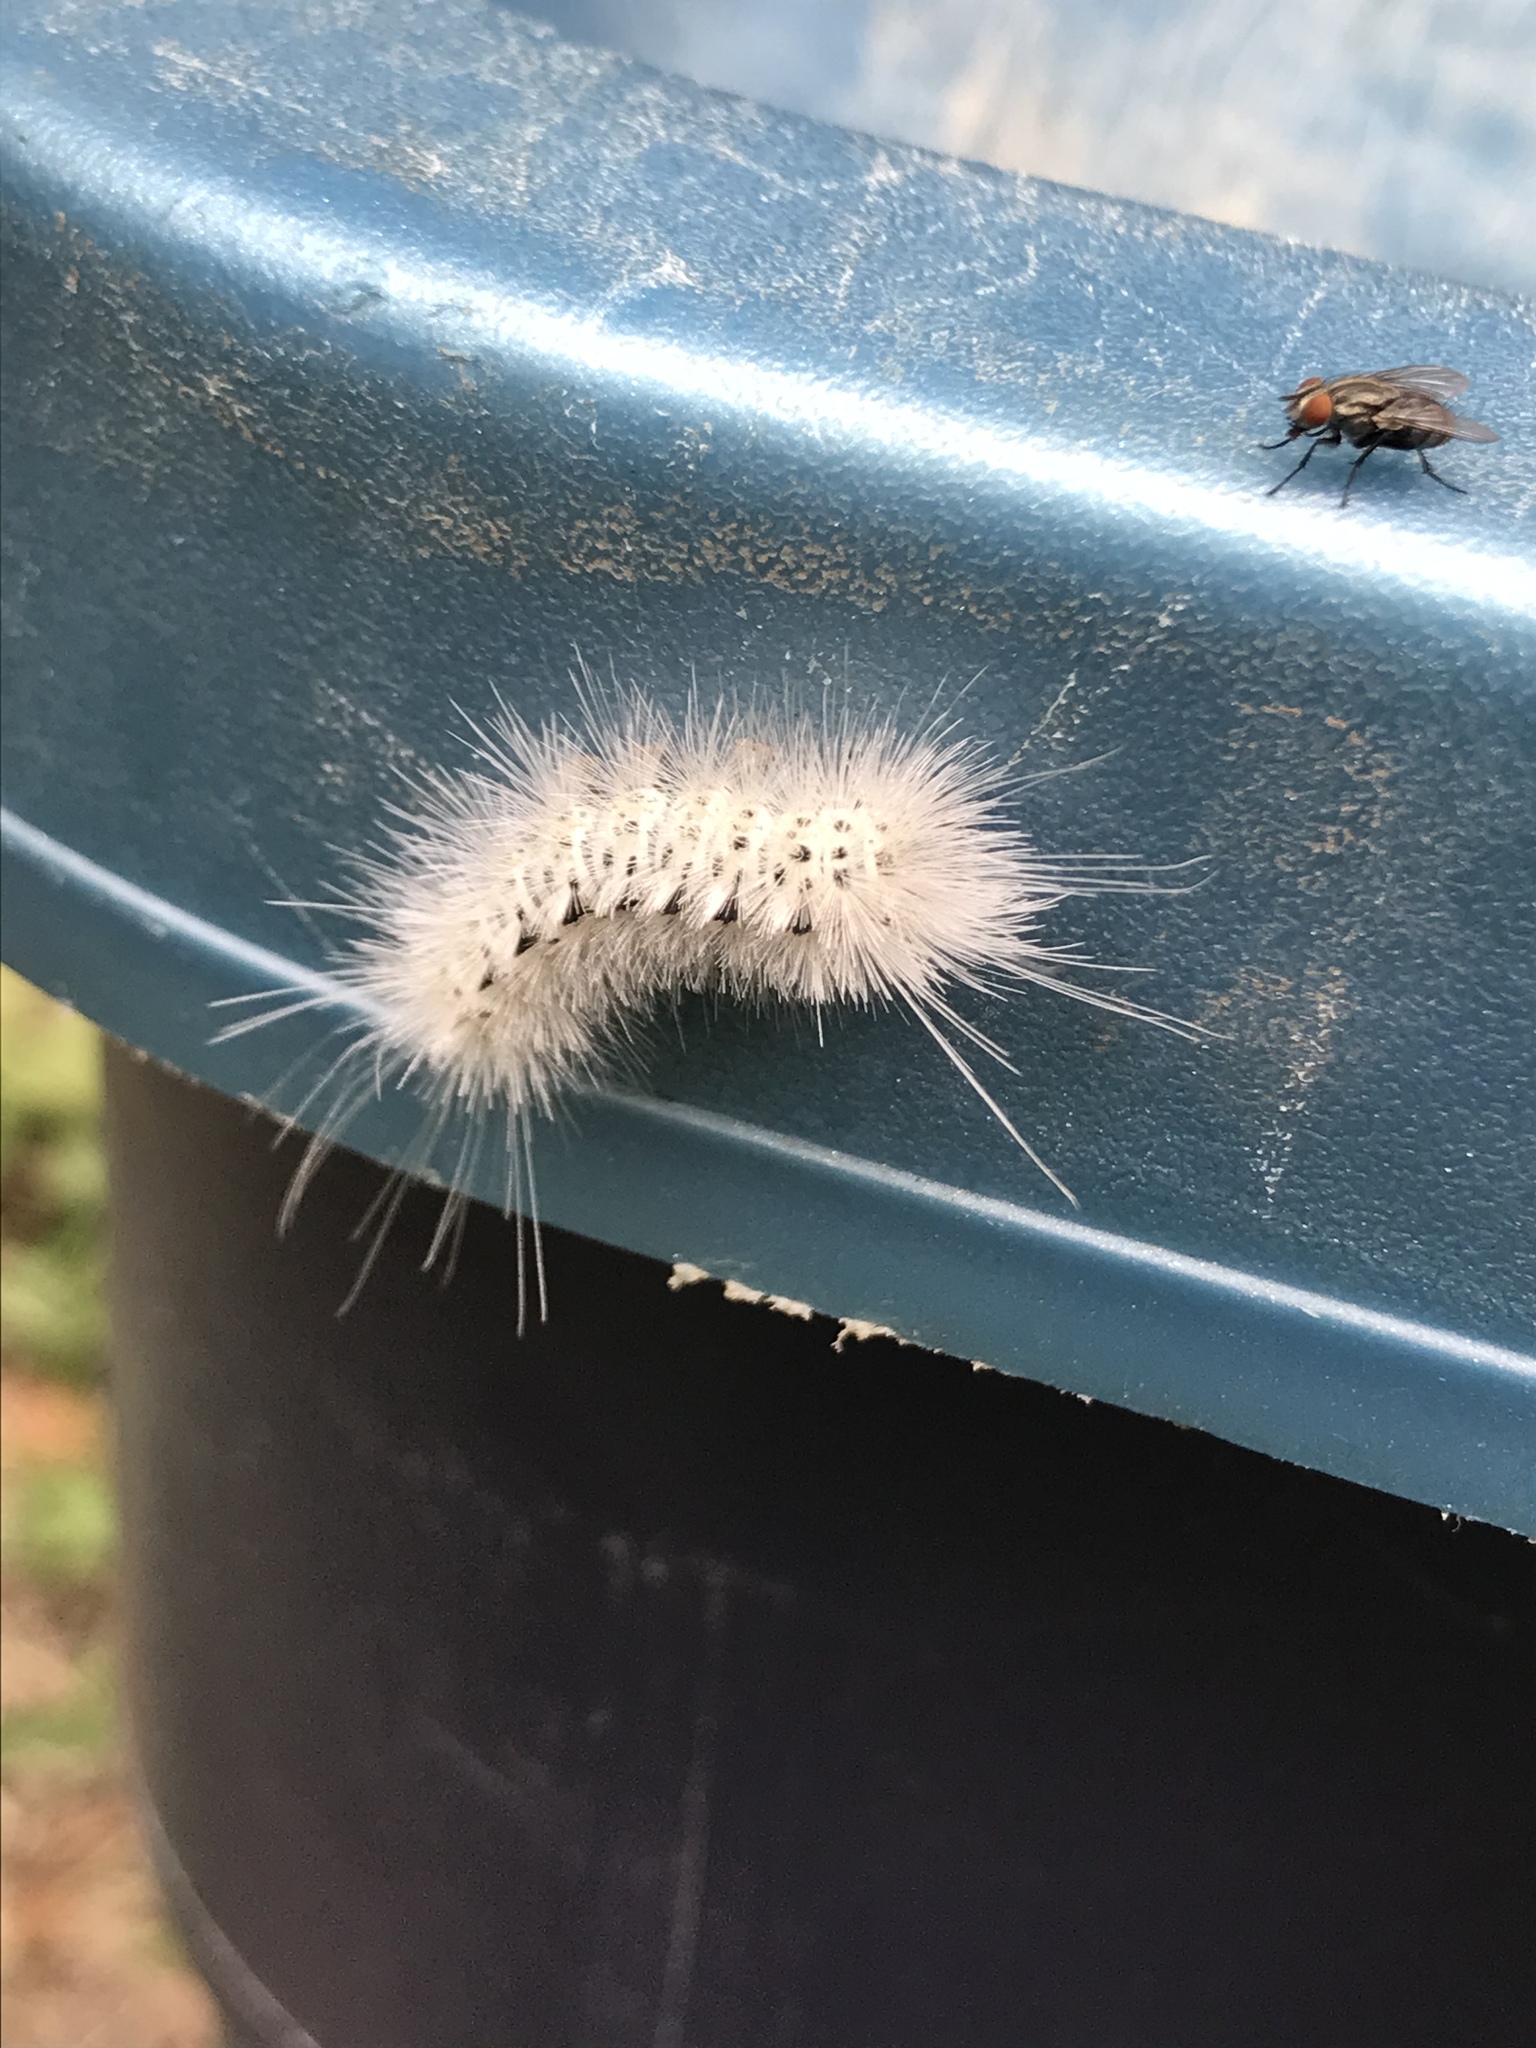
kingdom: Animalia
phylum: Arthropoda
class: Insecta
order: Lepidoptera
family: Erebidae
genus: Lophocampa
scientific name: Lophocampa caryae
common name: Hickory tussock moth
